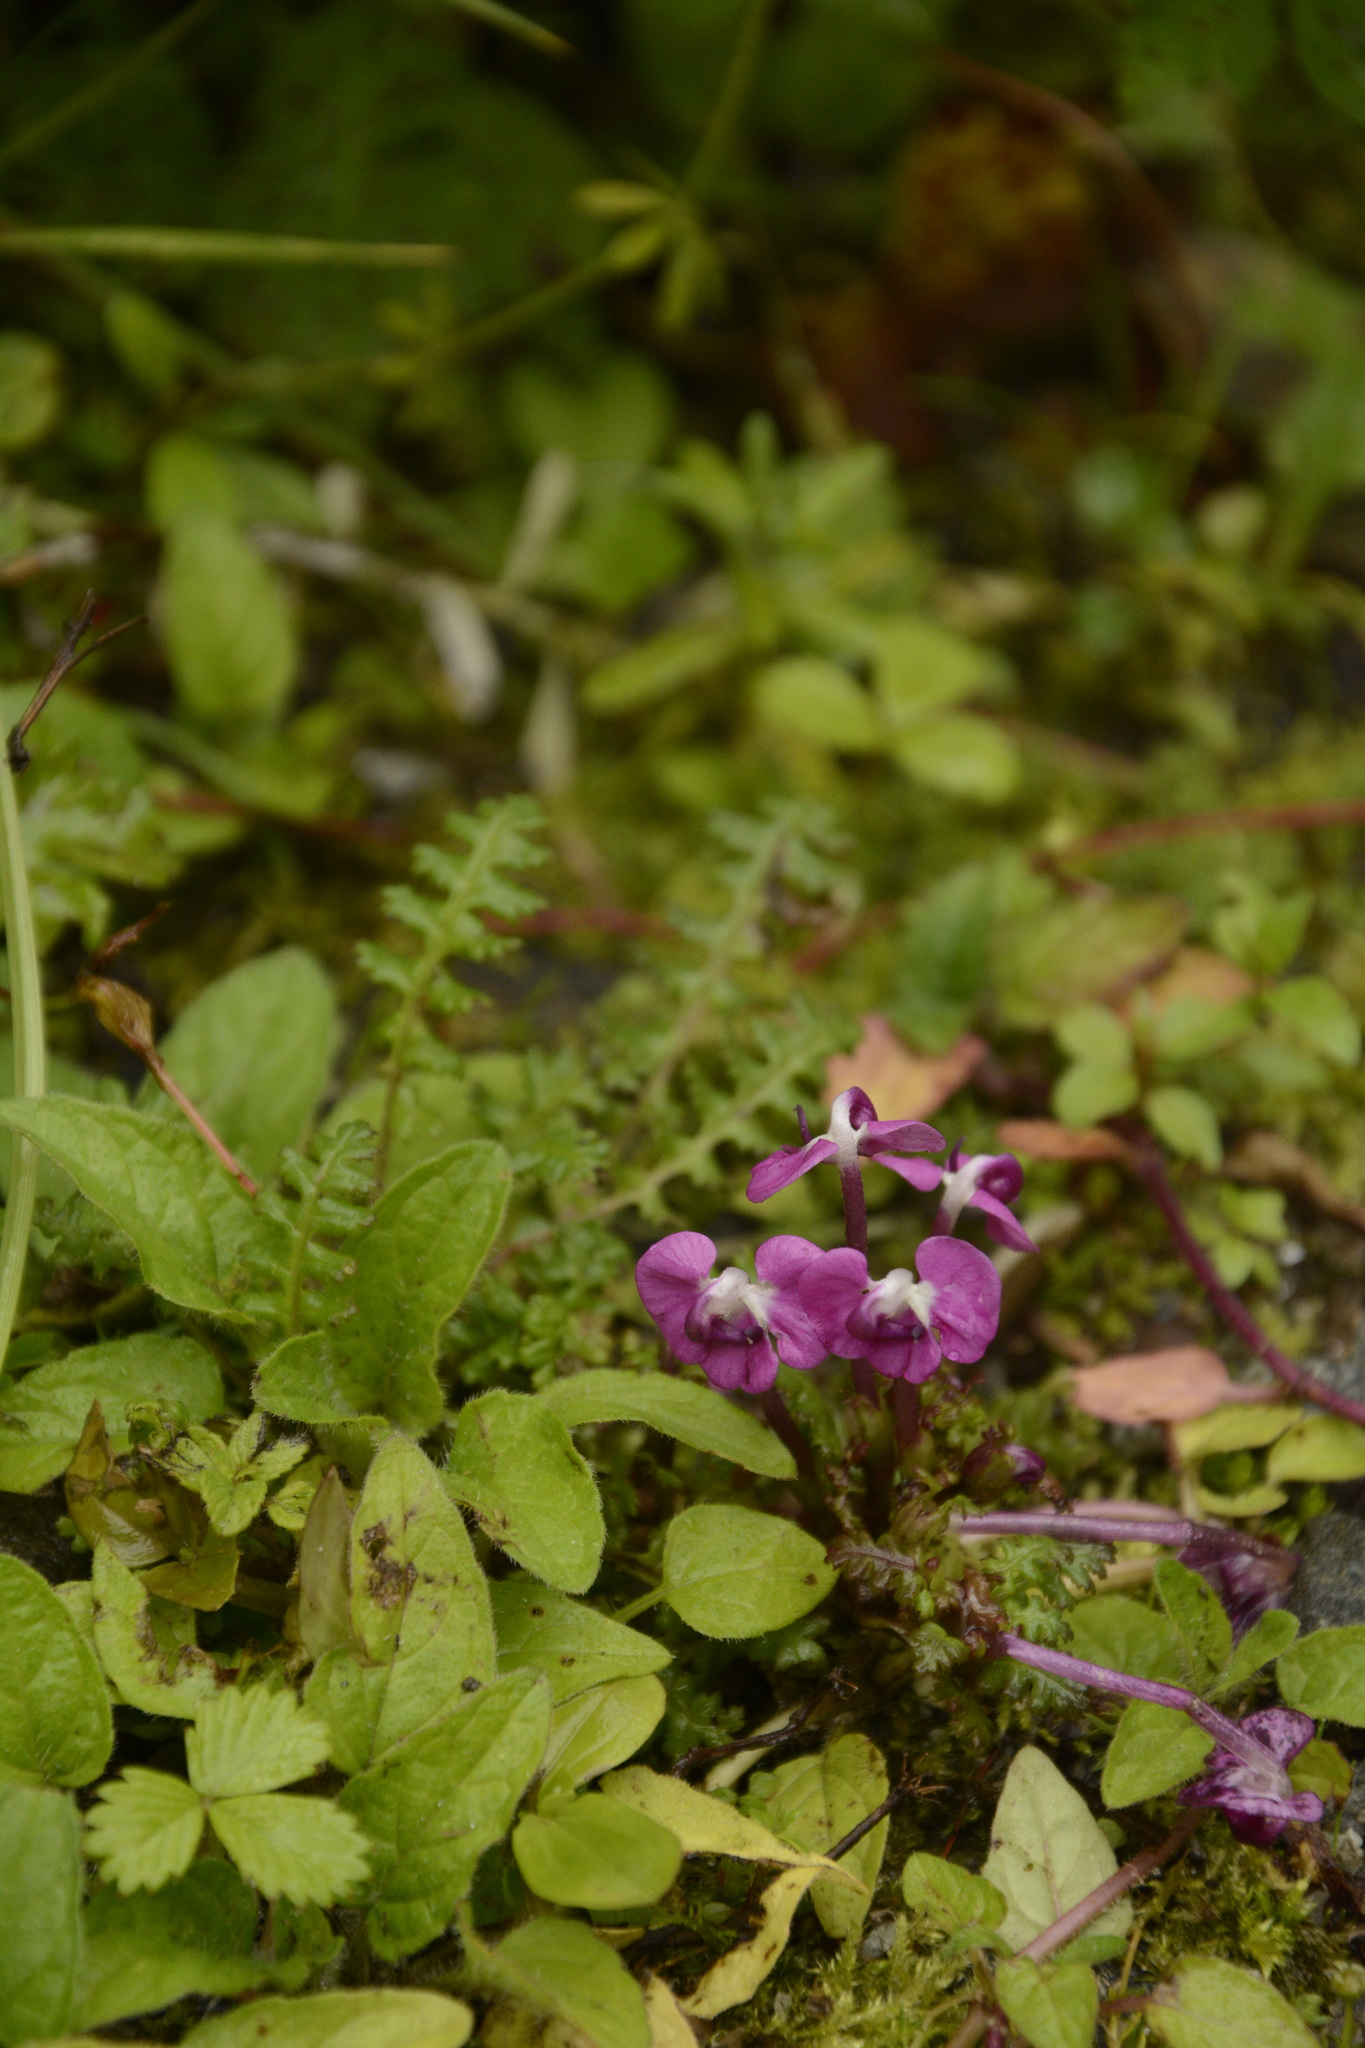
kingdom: Plantae
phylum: Tracheophyta
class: Magnoliopsida
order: Lamiales
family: Orobanchaceae
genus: Pedicularis
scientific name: Pedicularis siphonantha
